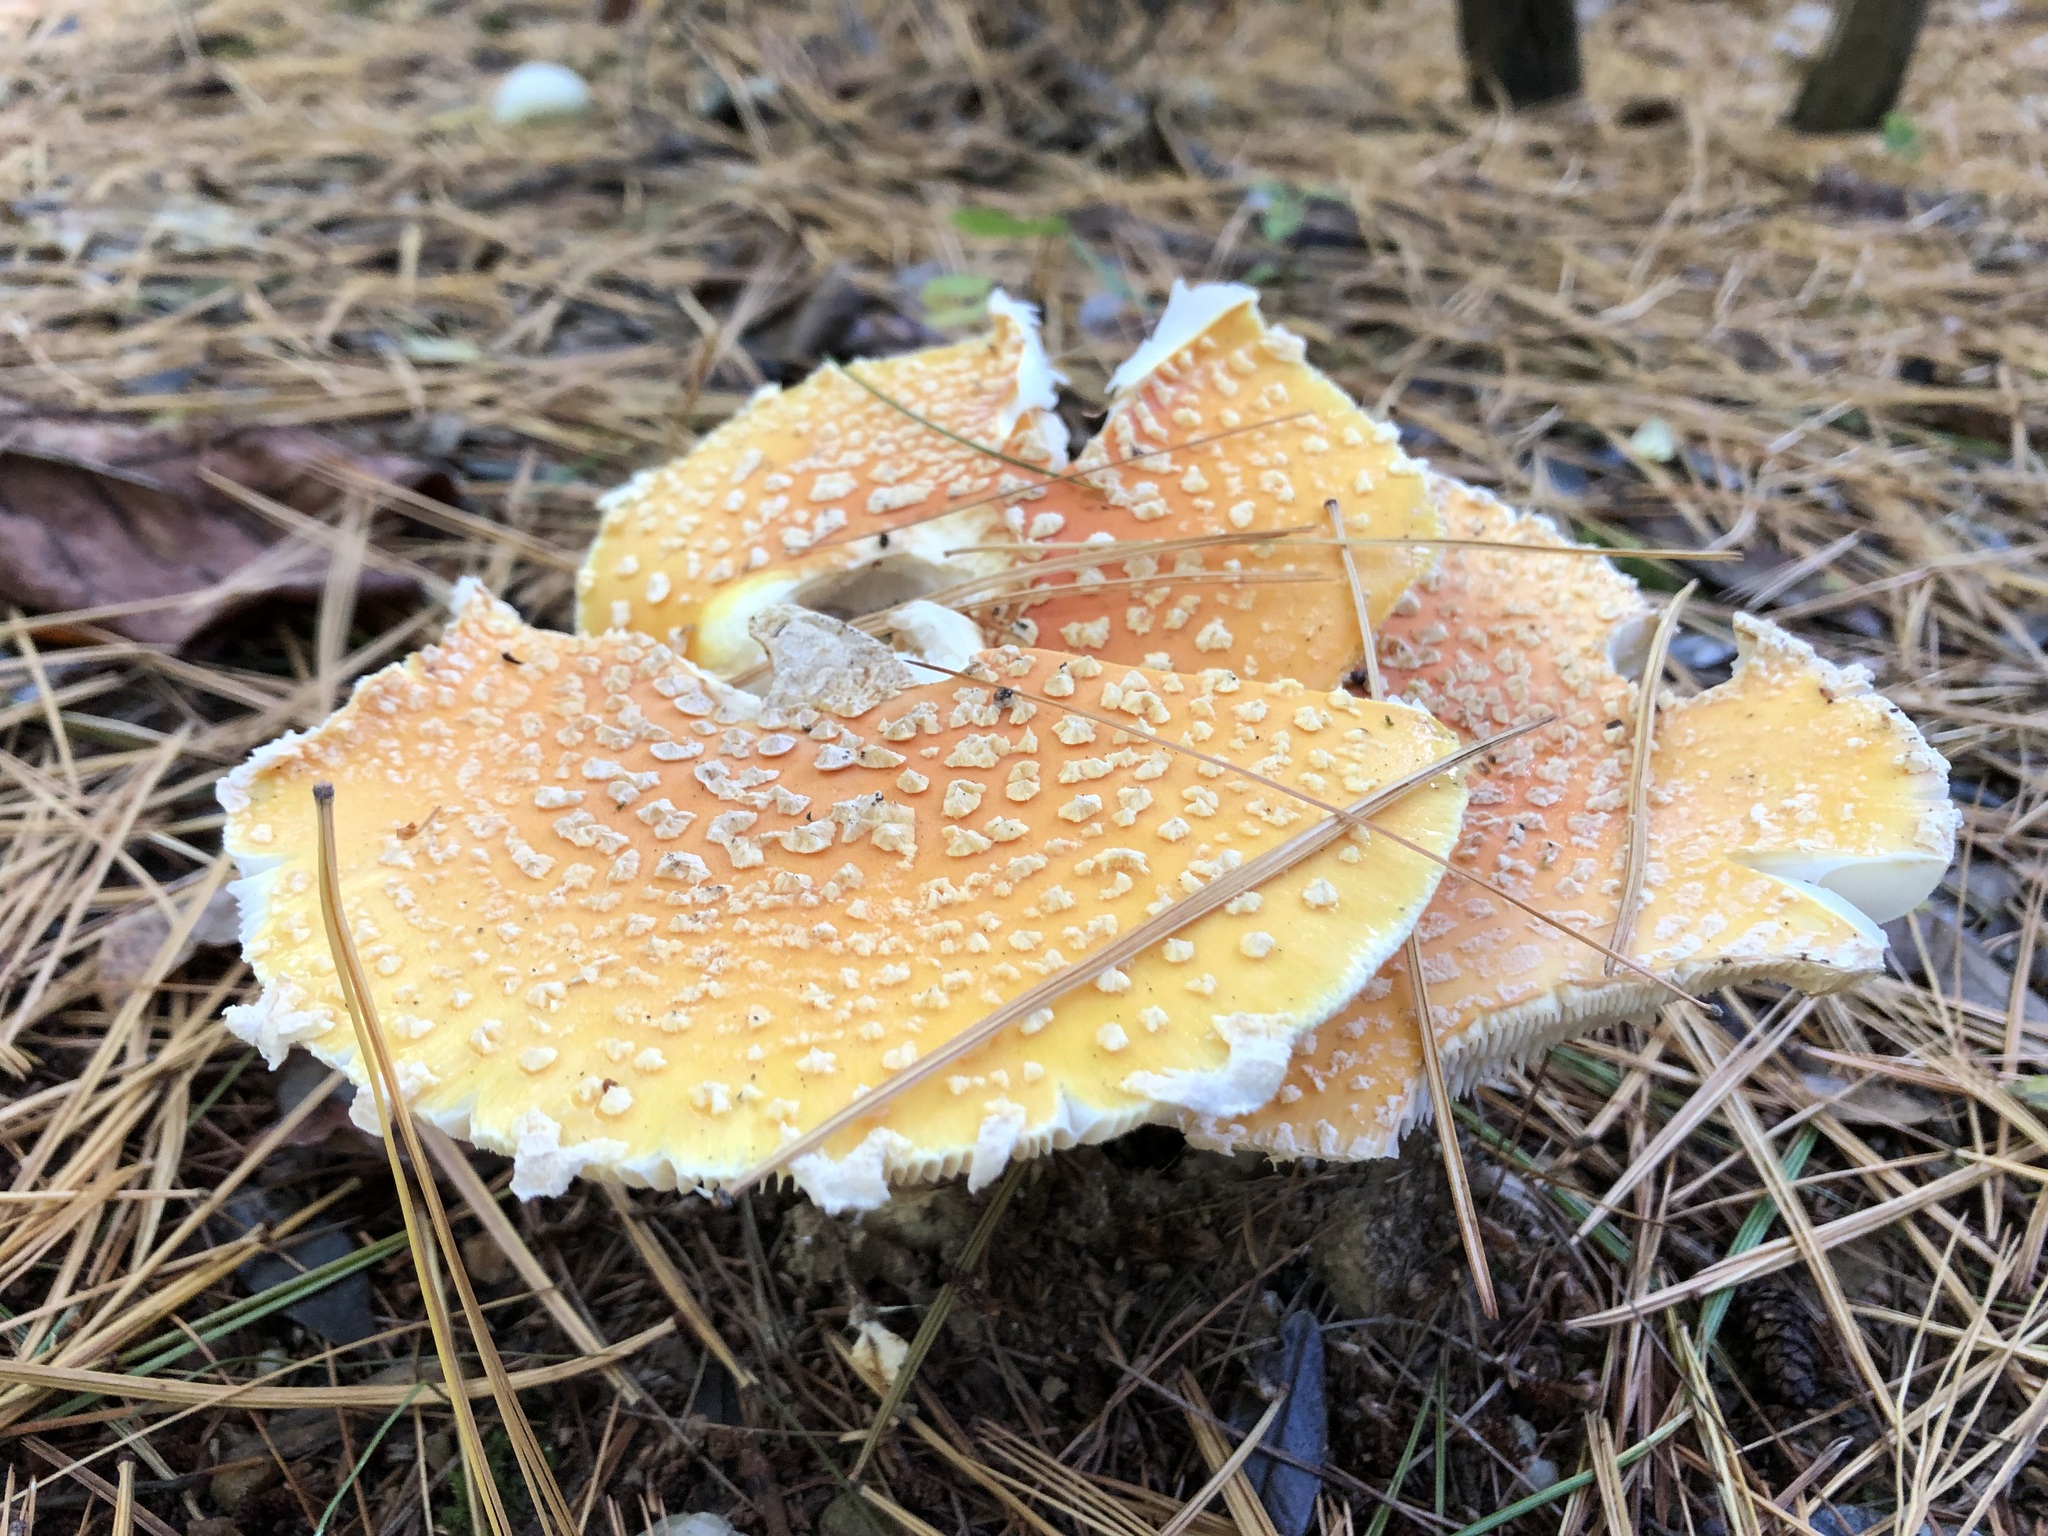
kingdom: Fungi
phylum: Basidiomycota
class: Agaricomycetes
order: Agaricales
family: Amanitaceae
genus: Amanita
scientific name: Amanita muscaria
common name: Fly agaric
